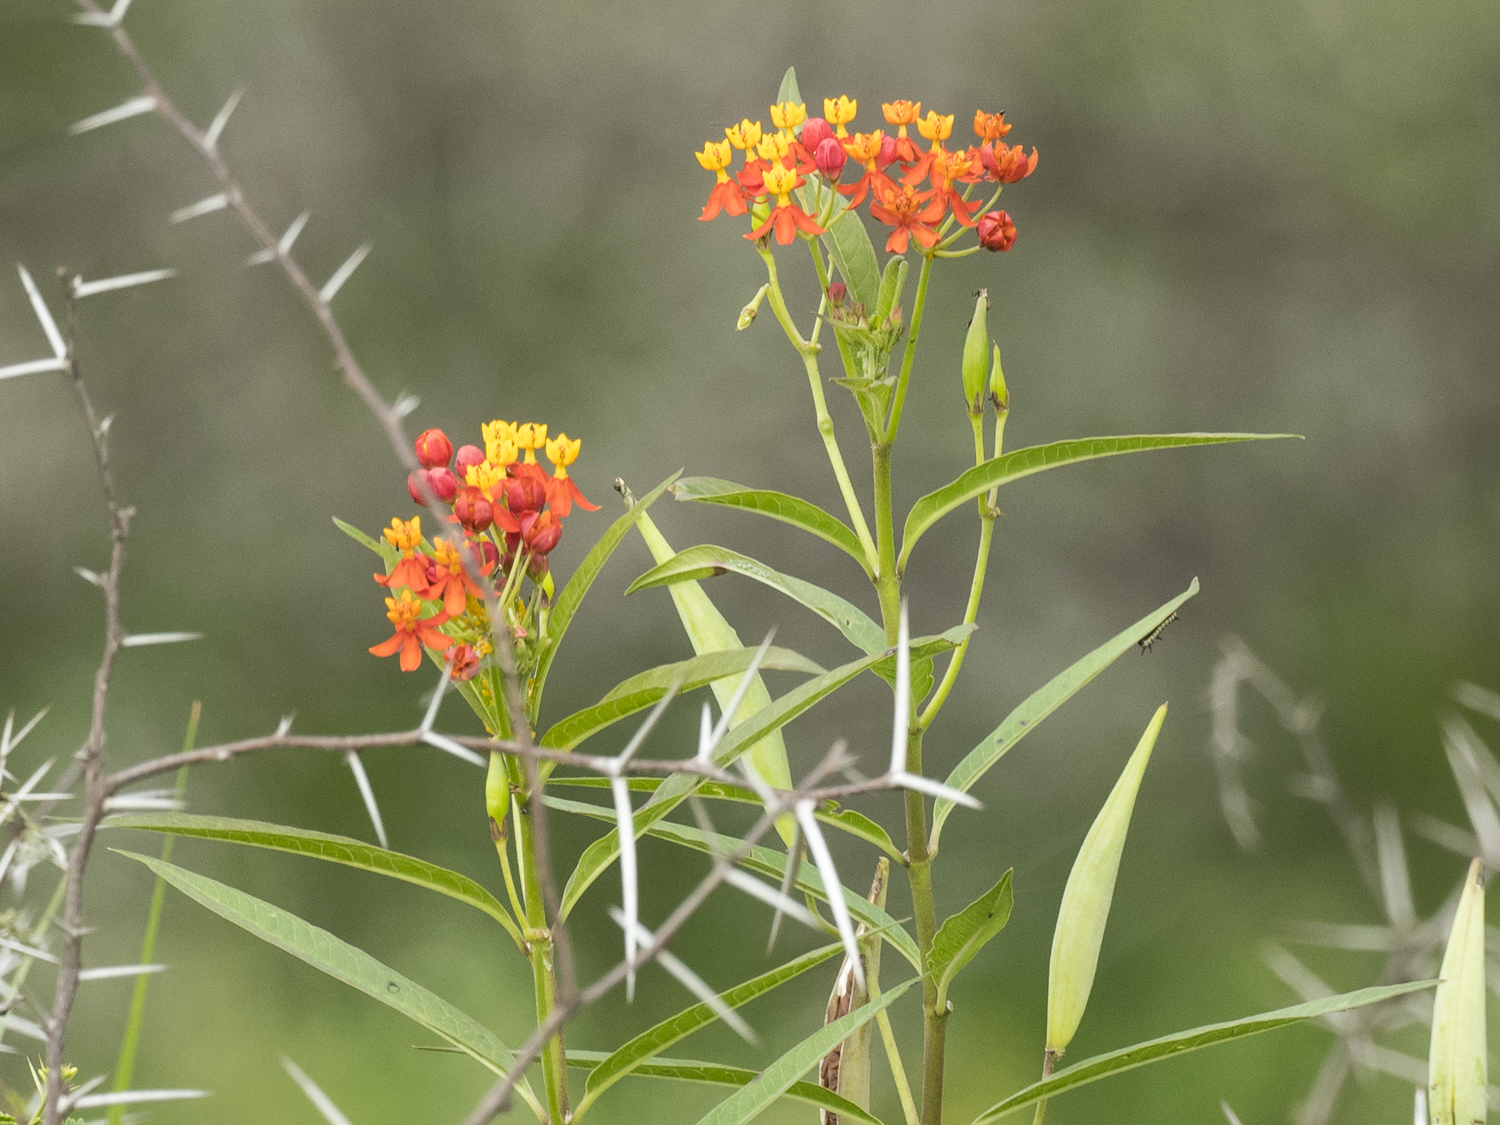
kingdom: Plantae
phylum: Tracheophyta
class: Magnoliopsida
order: Gentianales
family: Apocynaceae
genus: Asclepias
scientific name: Asclepias curassavica
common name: Bloodflower
